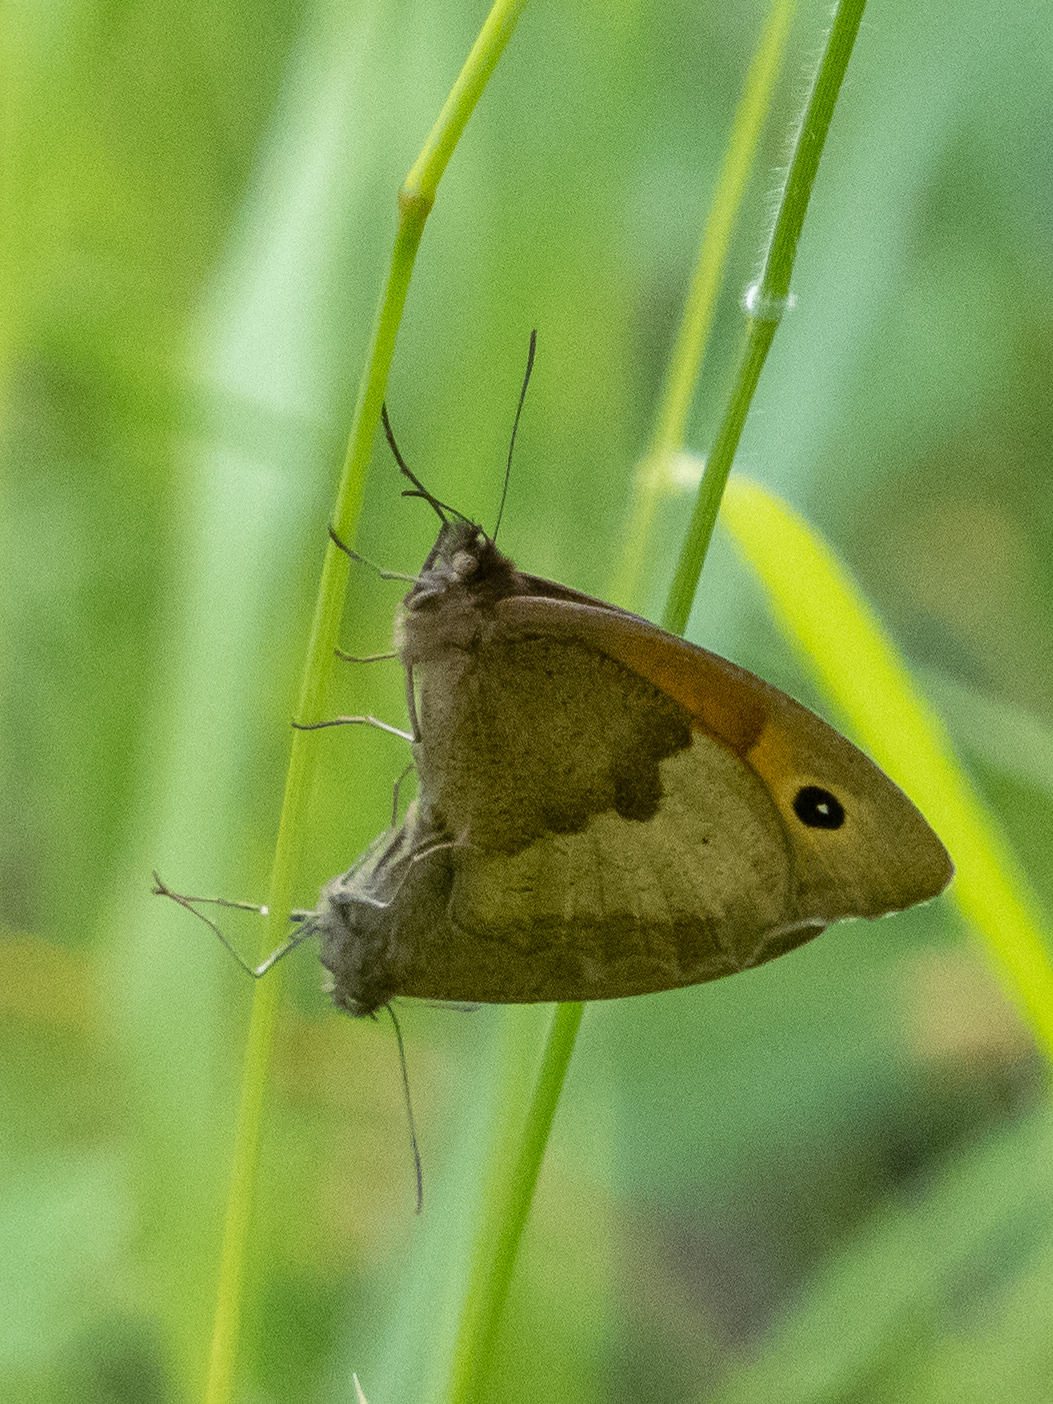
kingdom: Animalia
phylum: Arthropoda
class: Insecta
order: Lepidoptera
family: Nymphalidae
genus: Maniola
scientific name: Maniola jurtina
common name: Meadow brown
